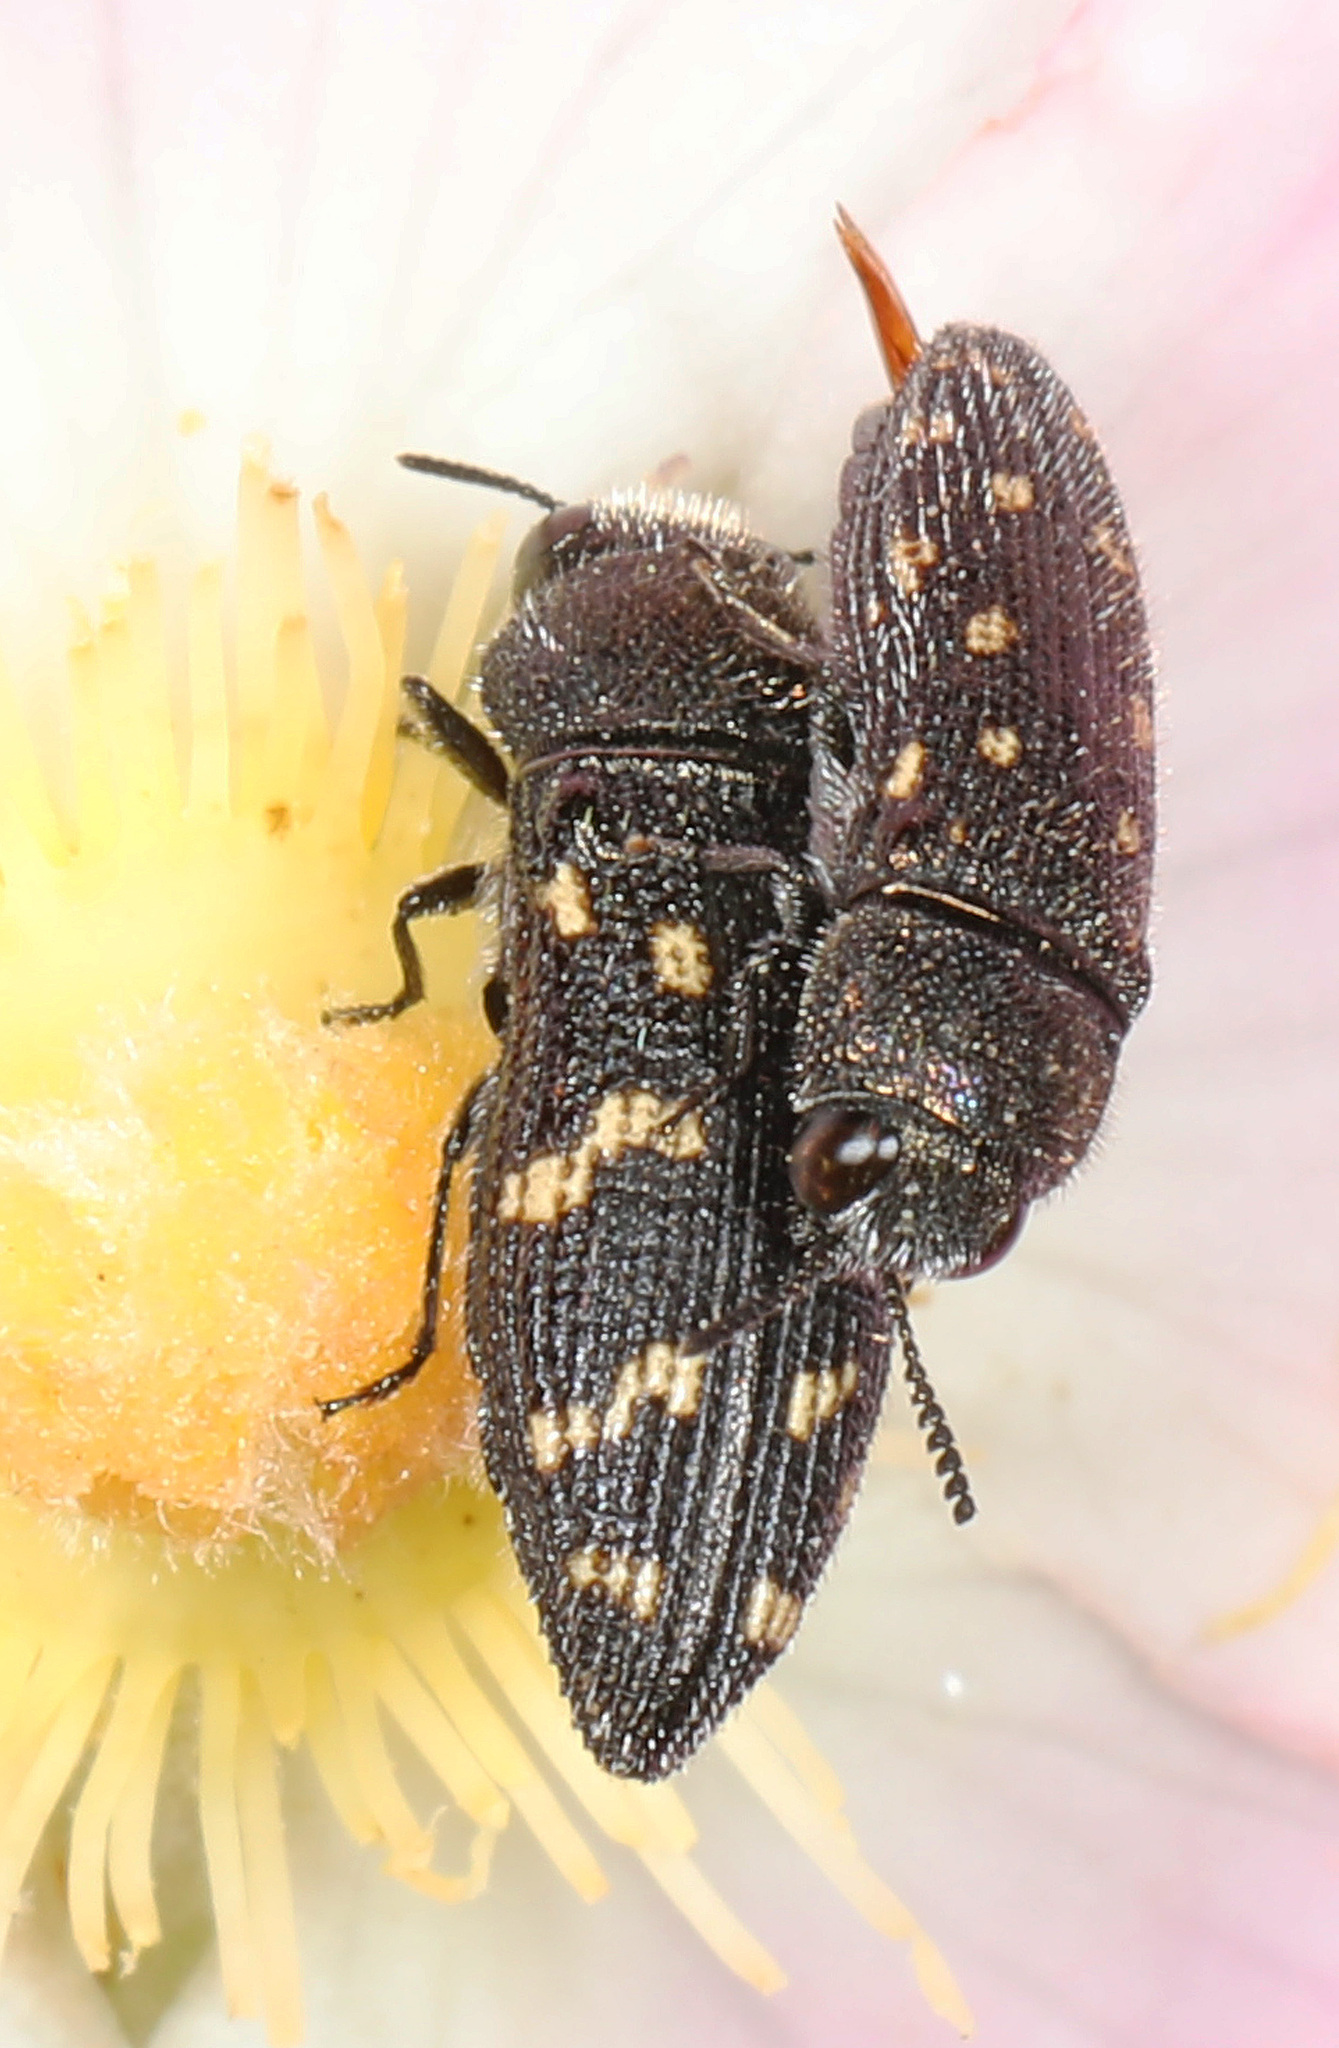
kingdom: Animalia
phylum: Arthropoda
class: Insecta
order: Coleoptera
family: Buprestidae
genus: Acmaeodera
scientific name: Acmaeodera tubulus
